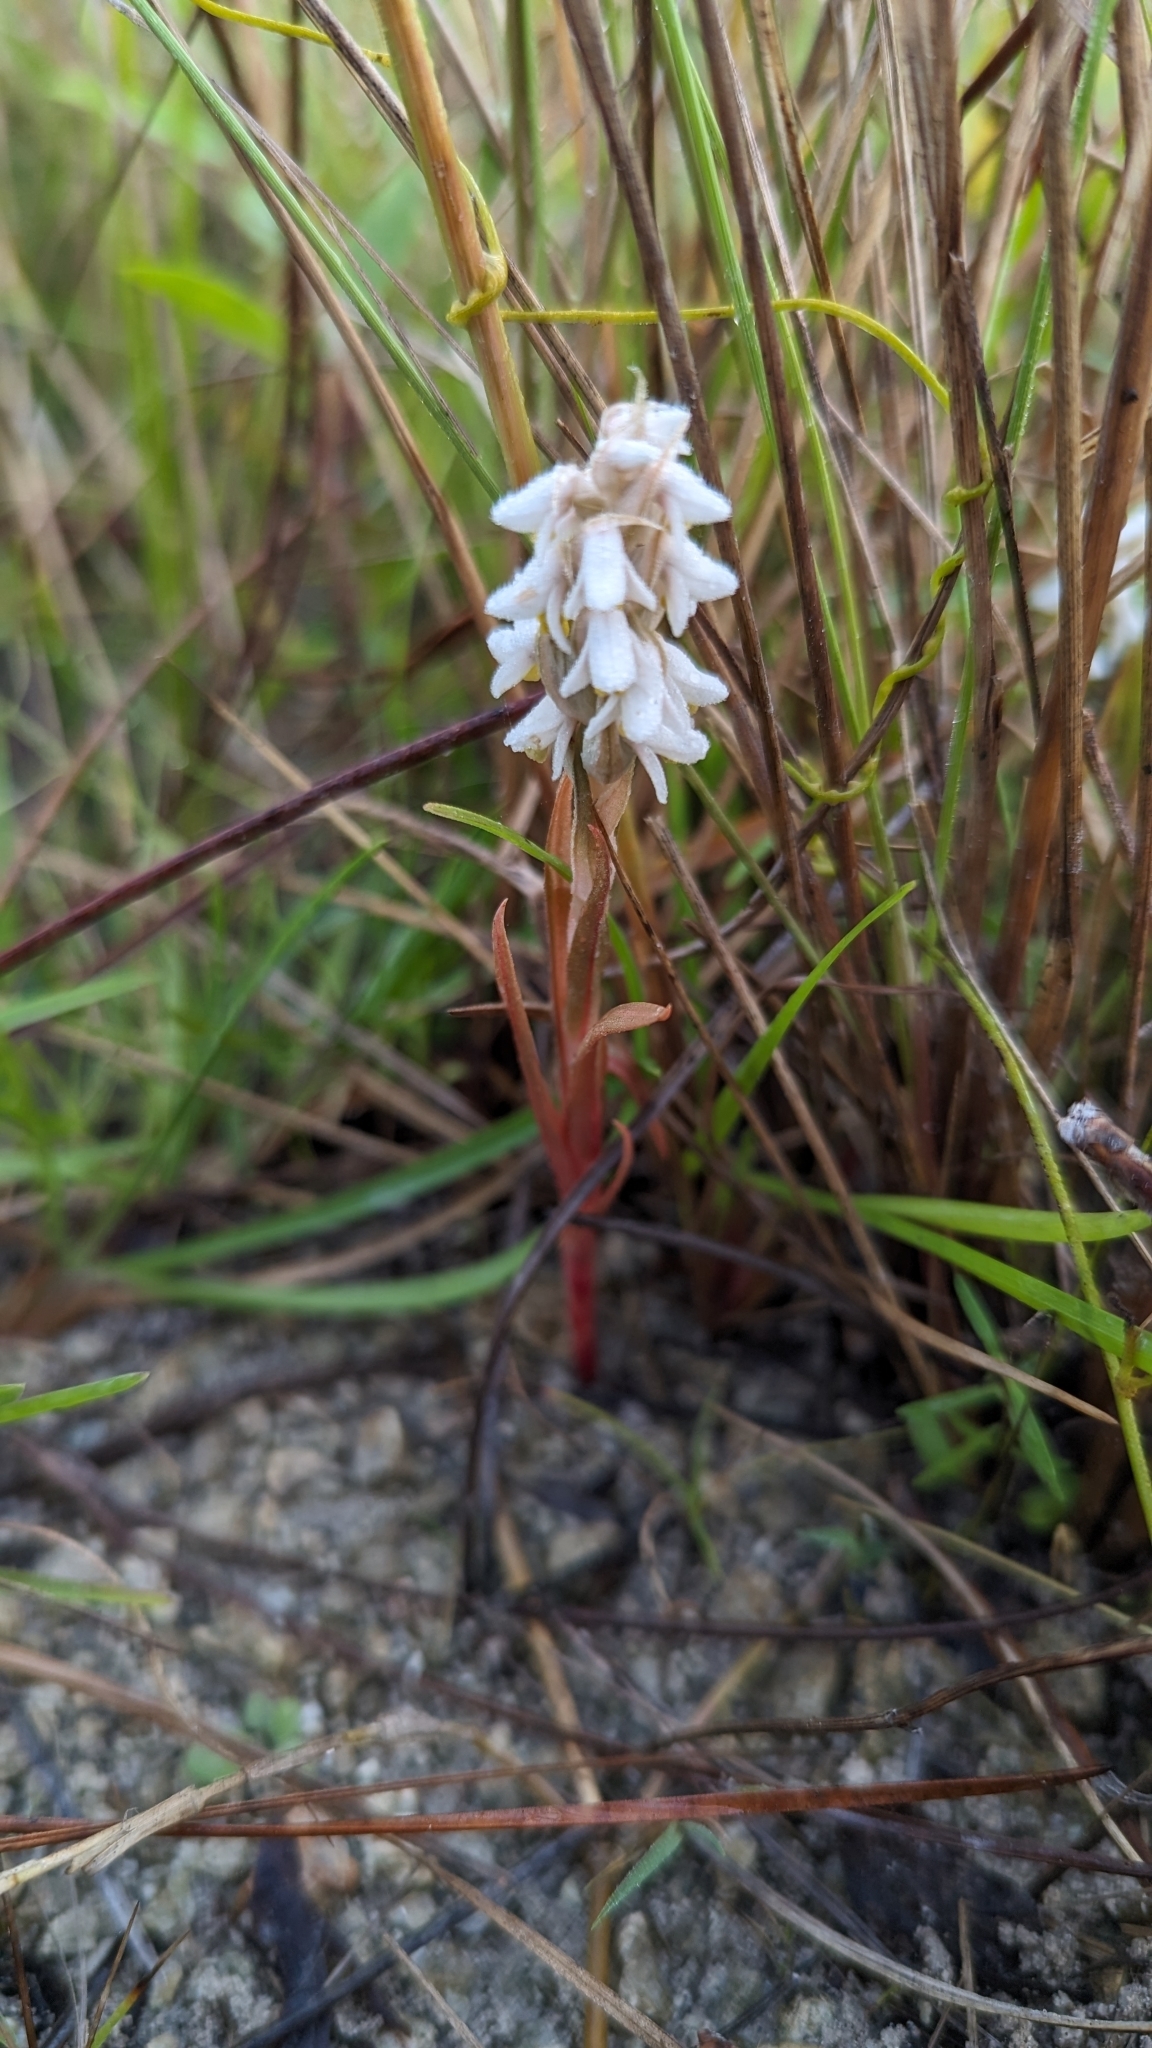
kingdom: Plantae
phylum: Tracheophyta
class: Liliopsida
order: Asparagales
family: Orchidaceae
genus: Zeuxine
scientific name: Zeuxine strateumatica
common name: Soldier's orchid
